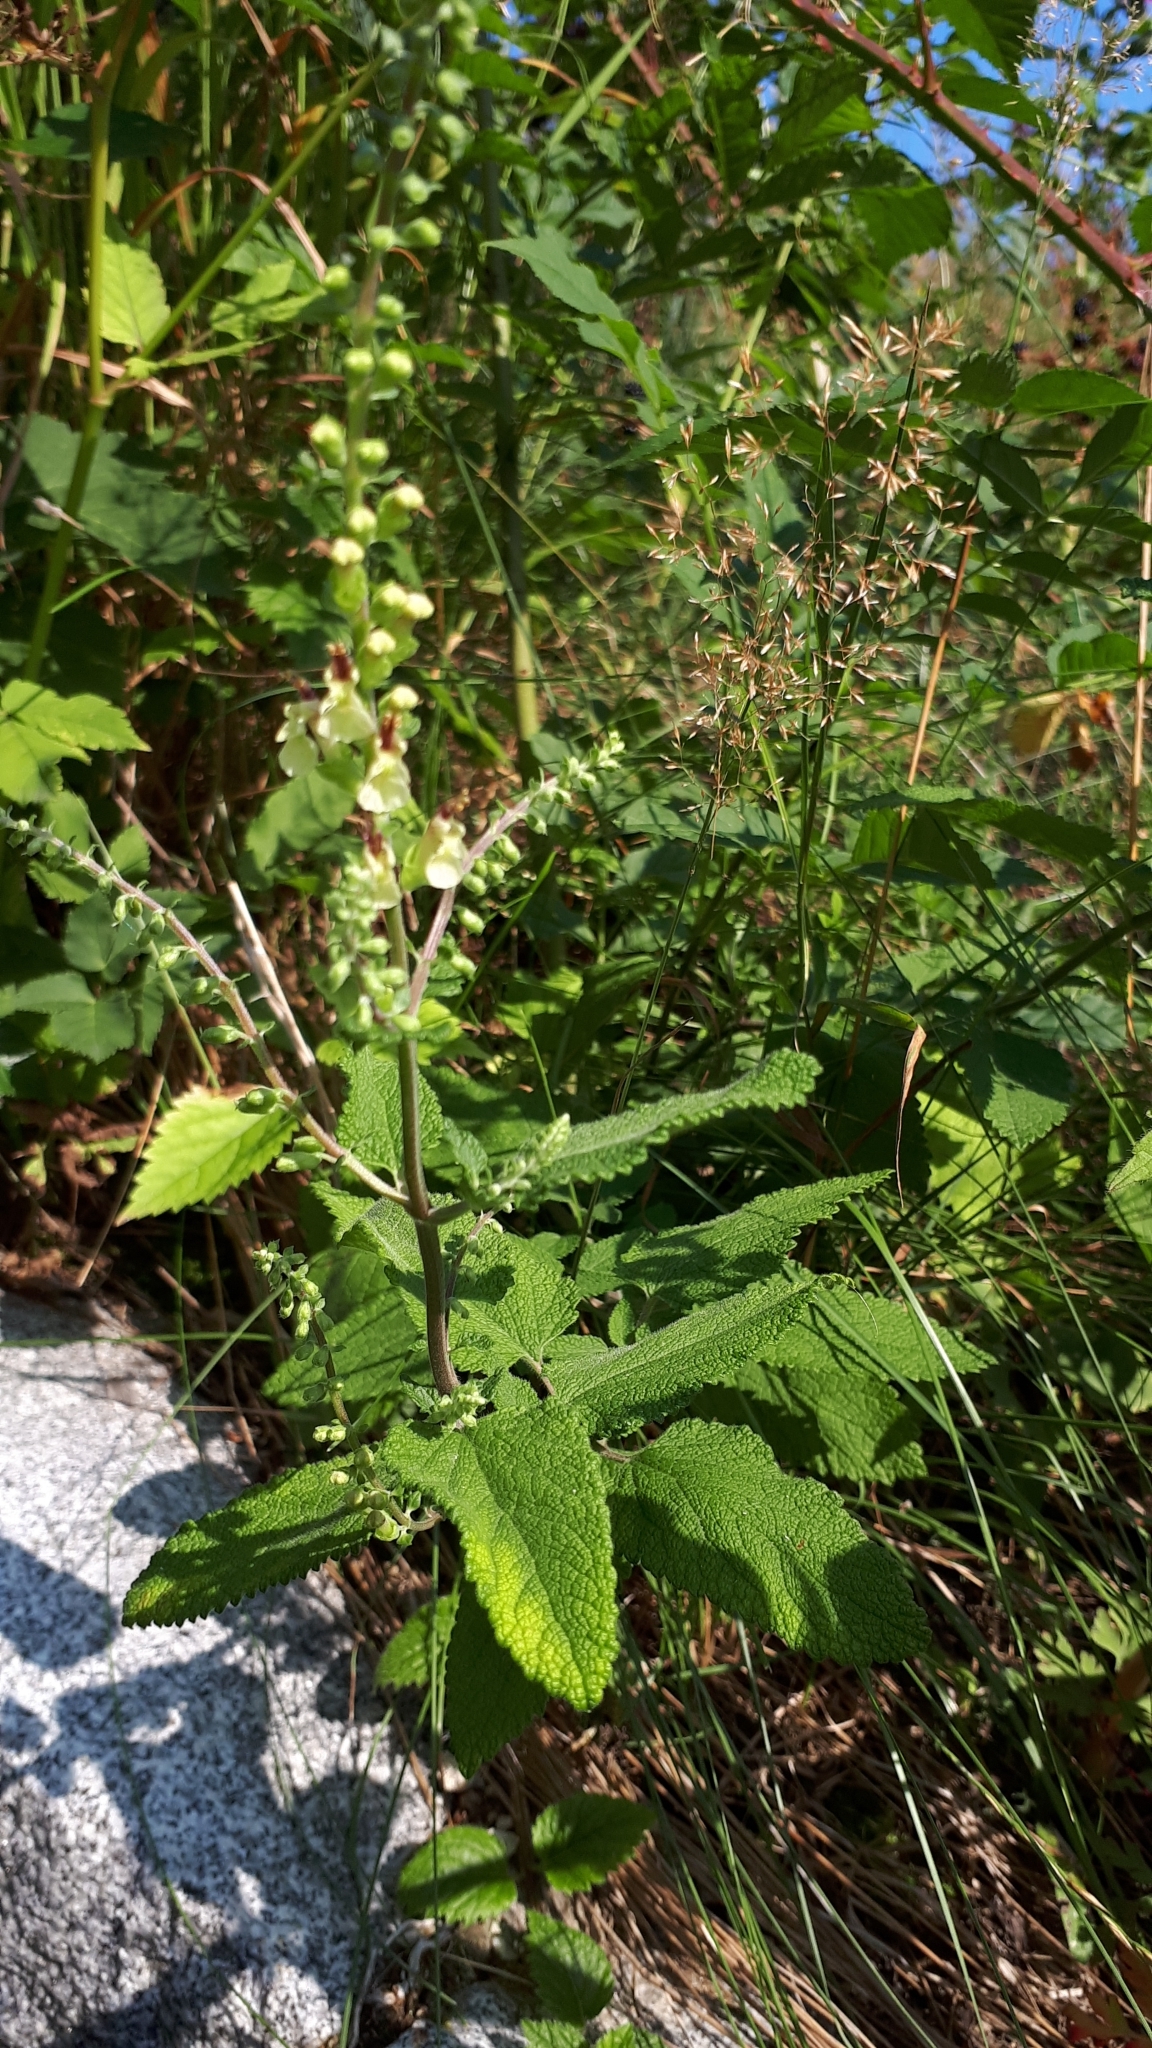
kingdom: Plantae
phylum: Tracheophyta
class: Magnoliopsida
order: Lamiales
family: Lamiaceae
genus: Teucrium
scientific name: Teucrium scorodonia
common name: Woodland germander
